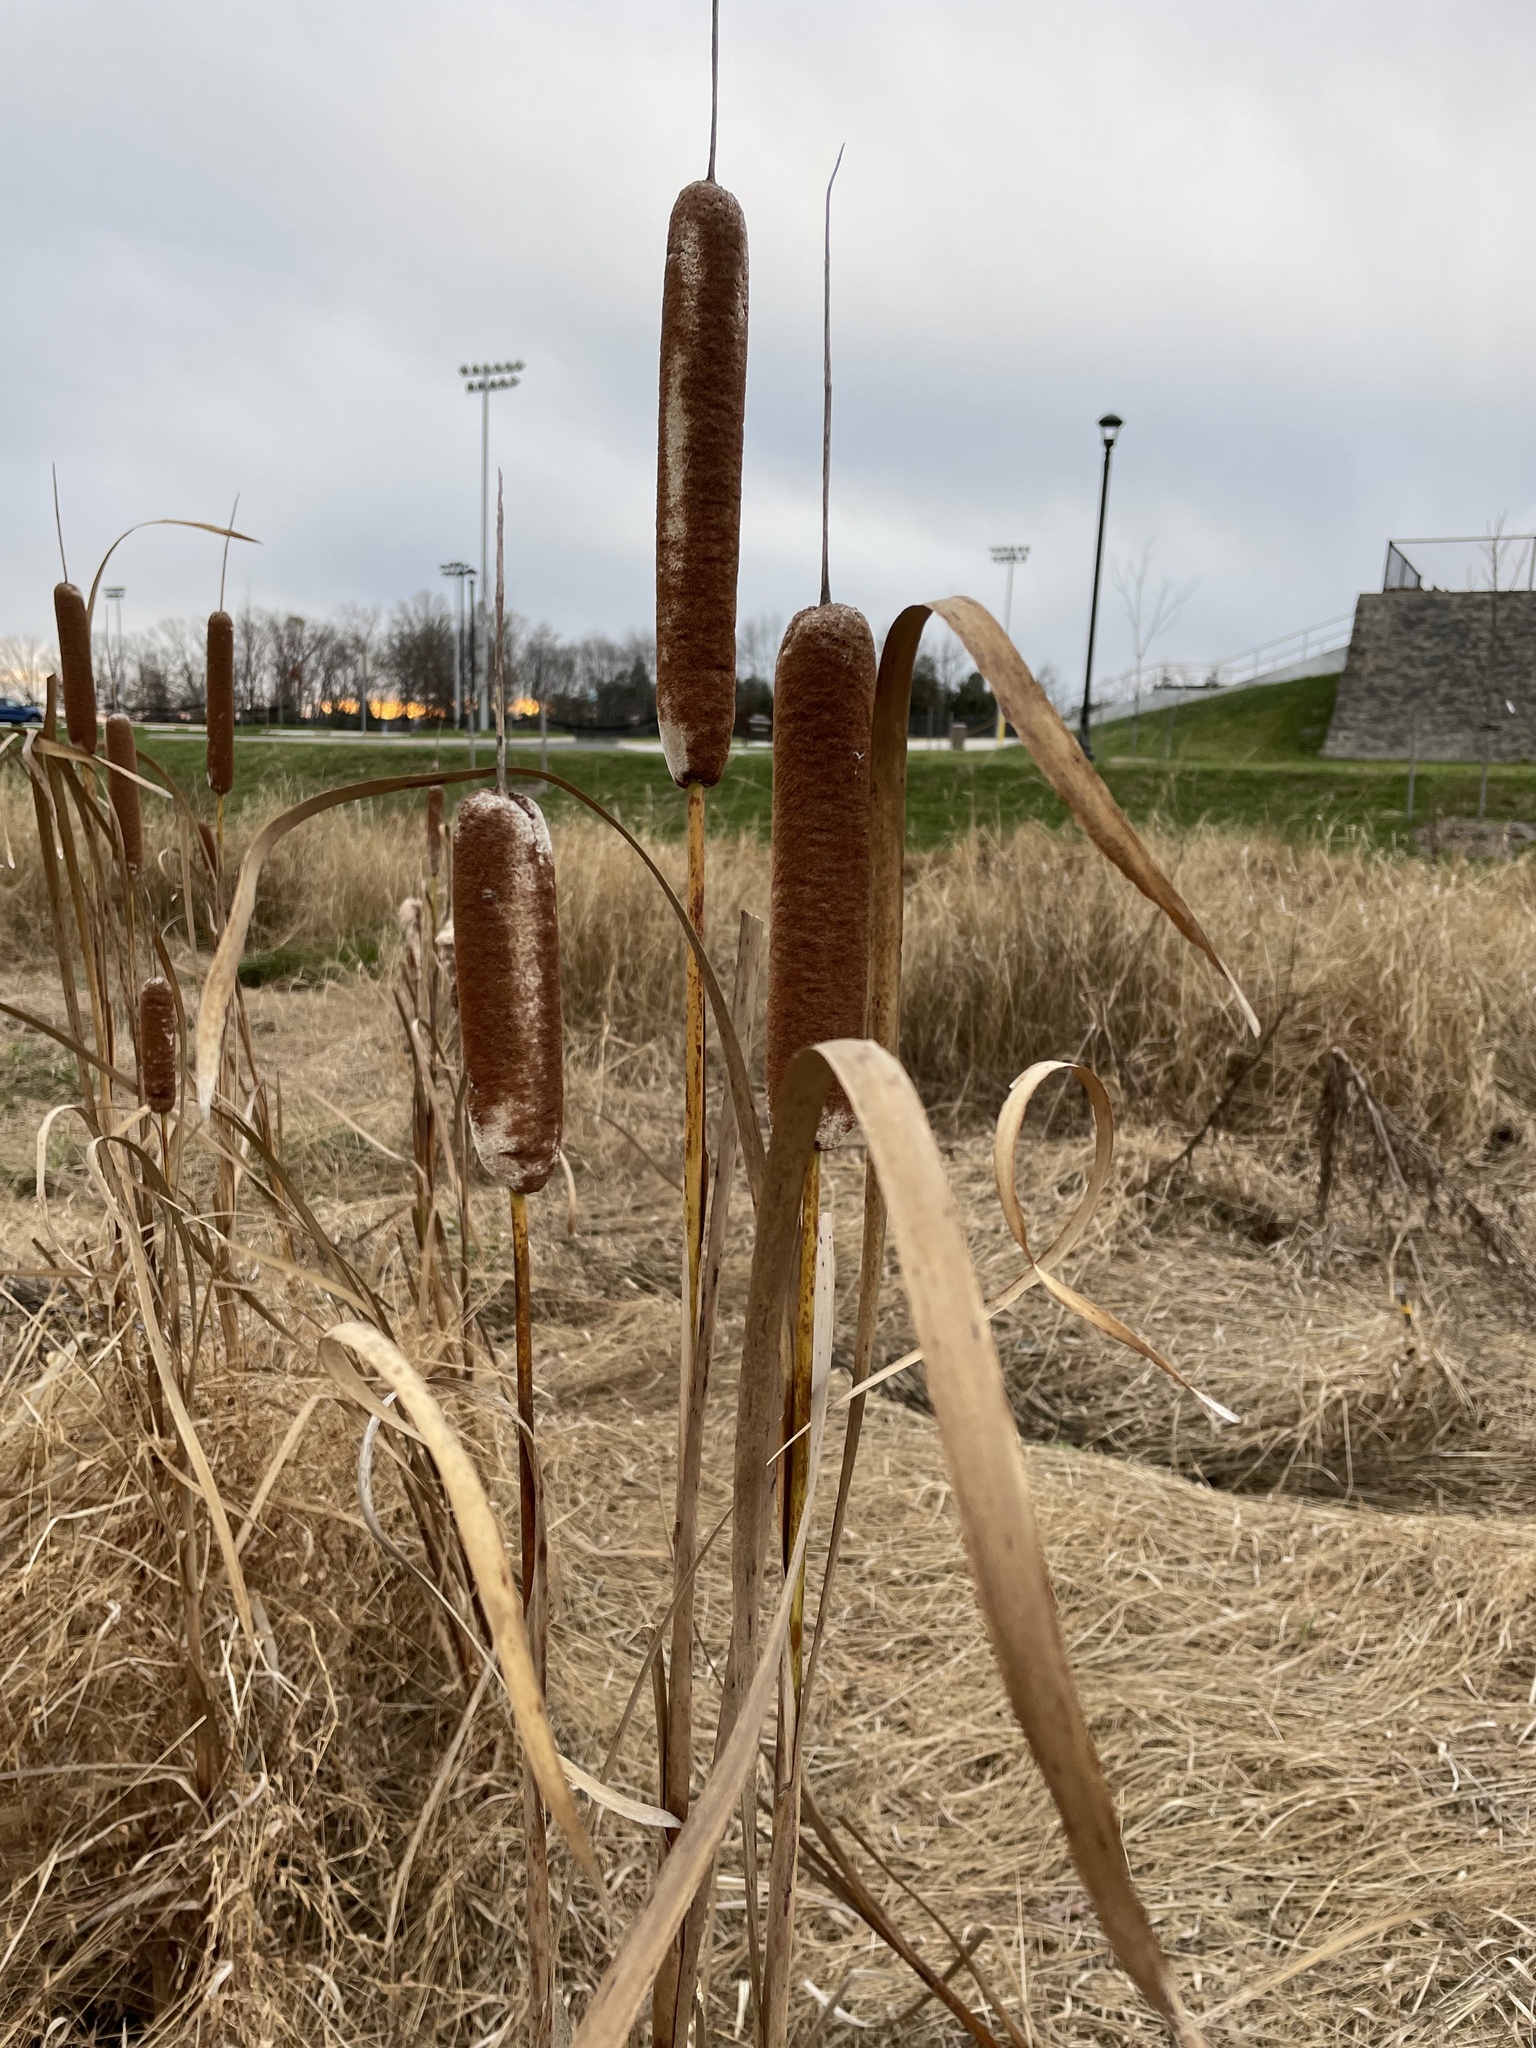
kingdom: Plantae
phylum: Tracheophyta
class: Liliopsida
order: Poales
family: Typhaceae
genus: Typha
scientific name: Typha latifolia
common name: Broadleaf cattail
